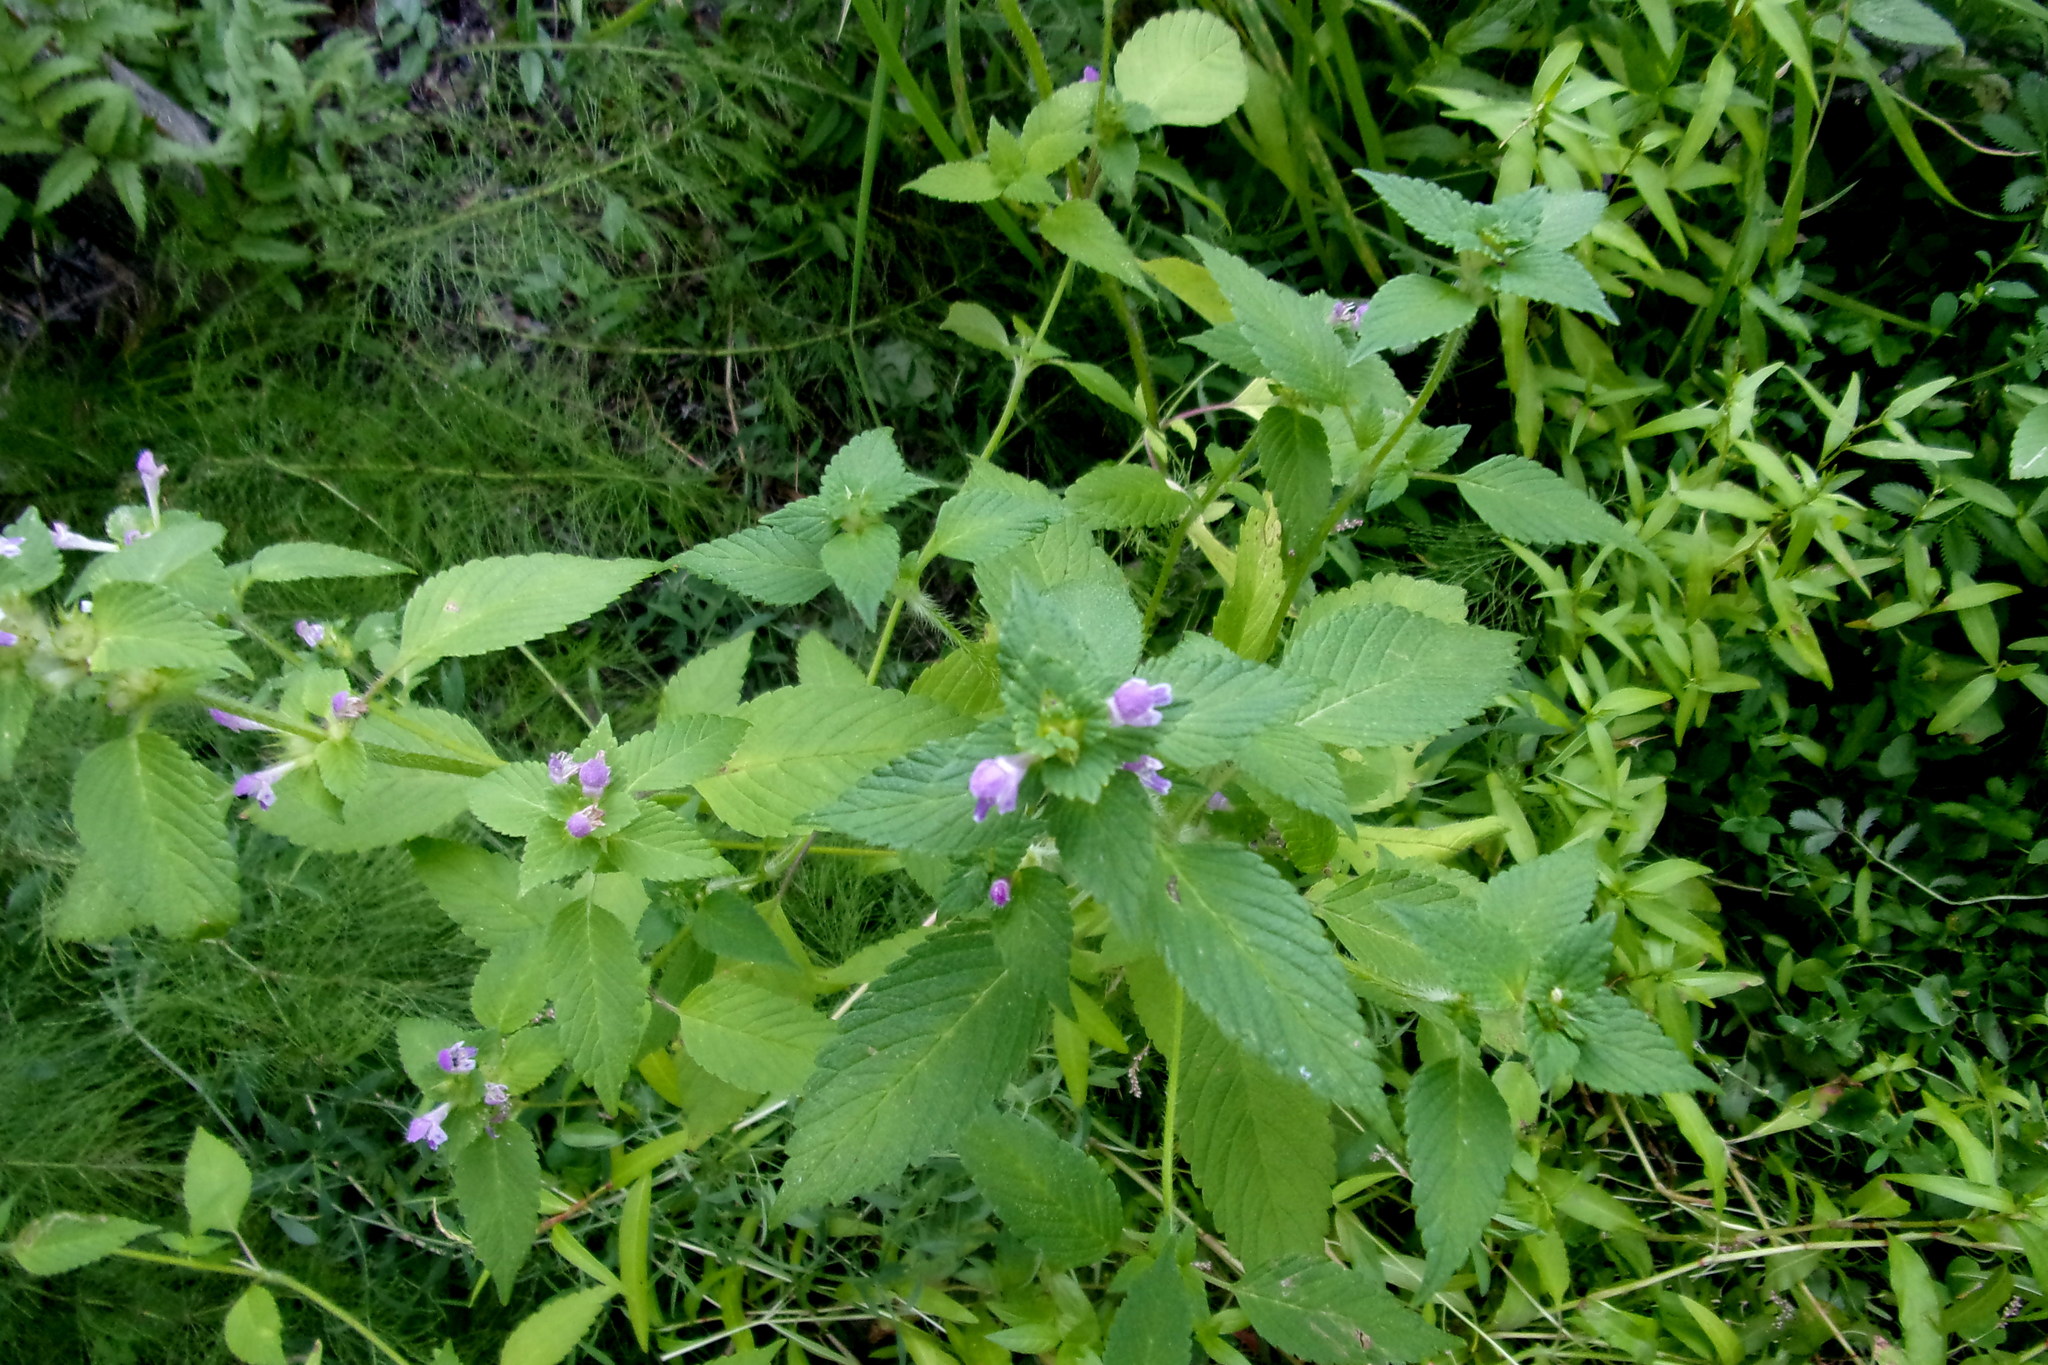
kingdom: Plantae
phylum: Tracheophyta
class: Magnoliopsida
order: Lamiales
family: Lamiaceae
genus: Galeopsis
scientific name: Galeopsis bifida
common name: Bifid hemp-nettle
